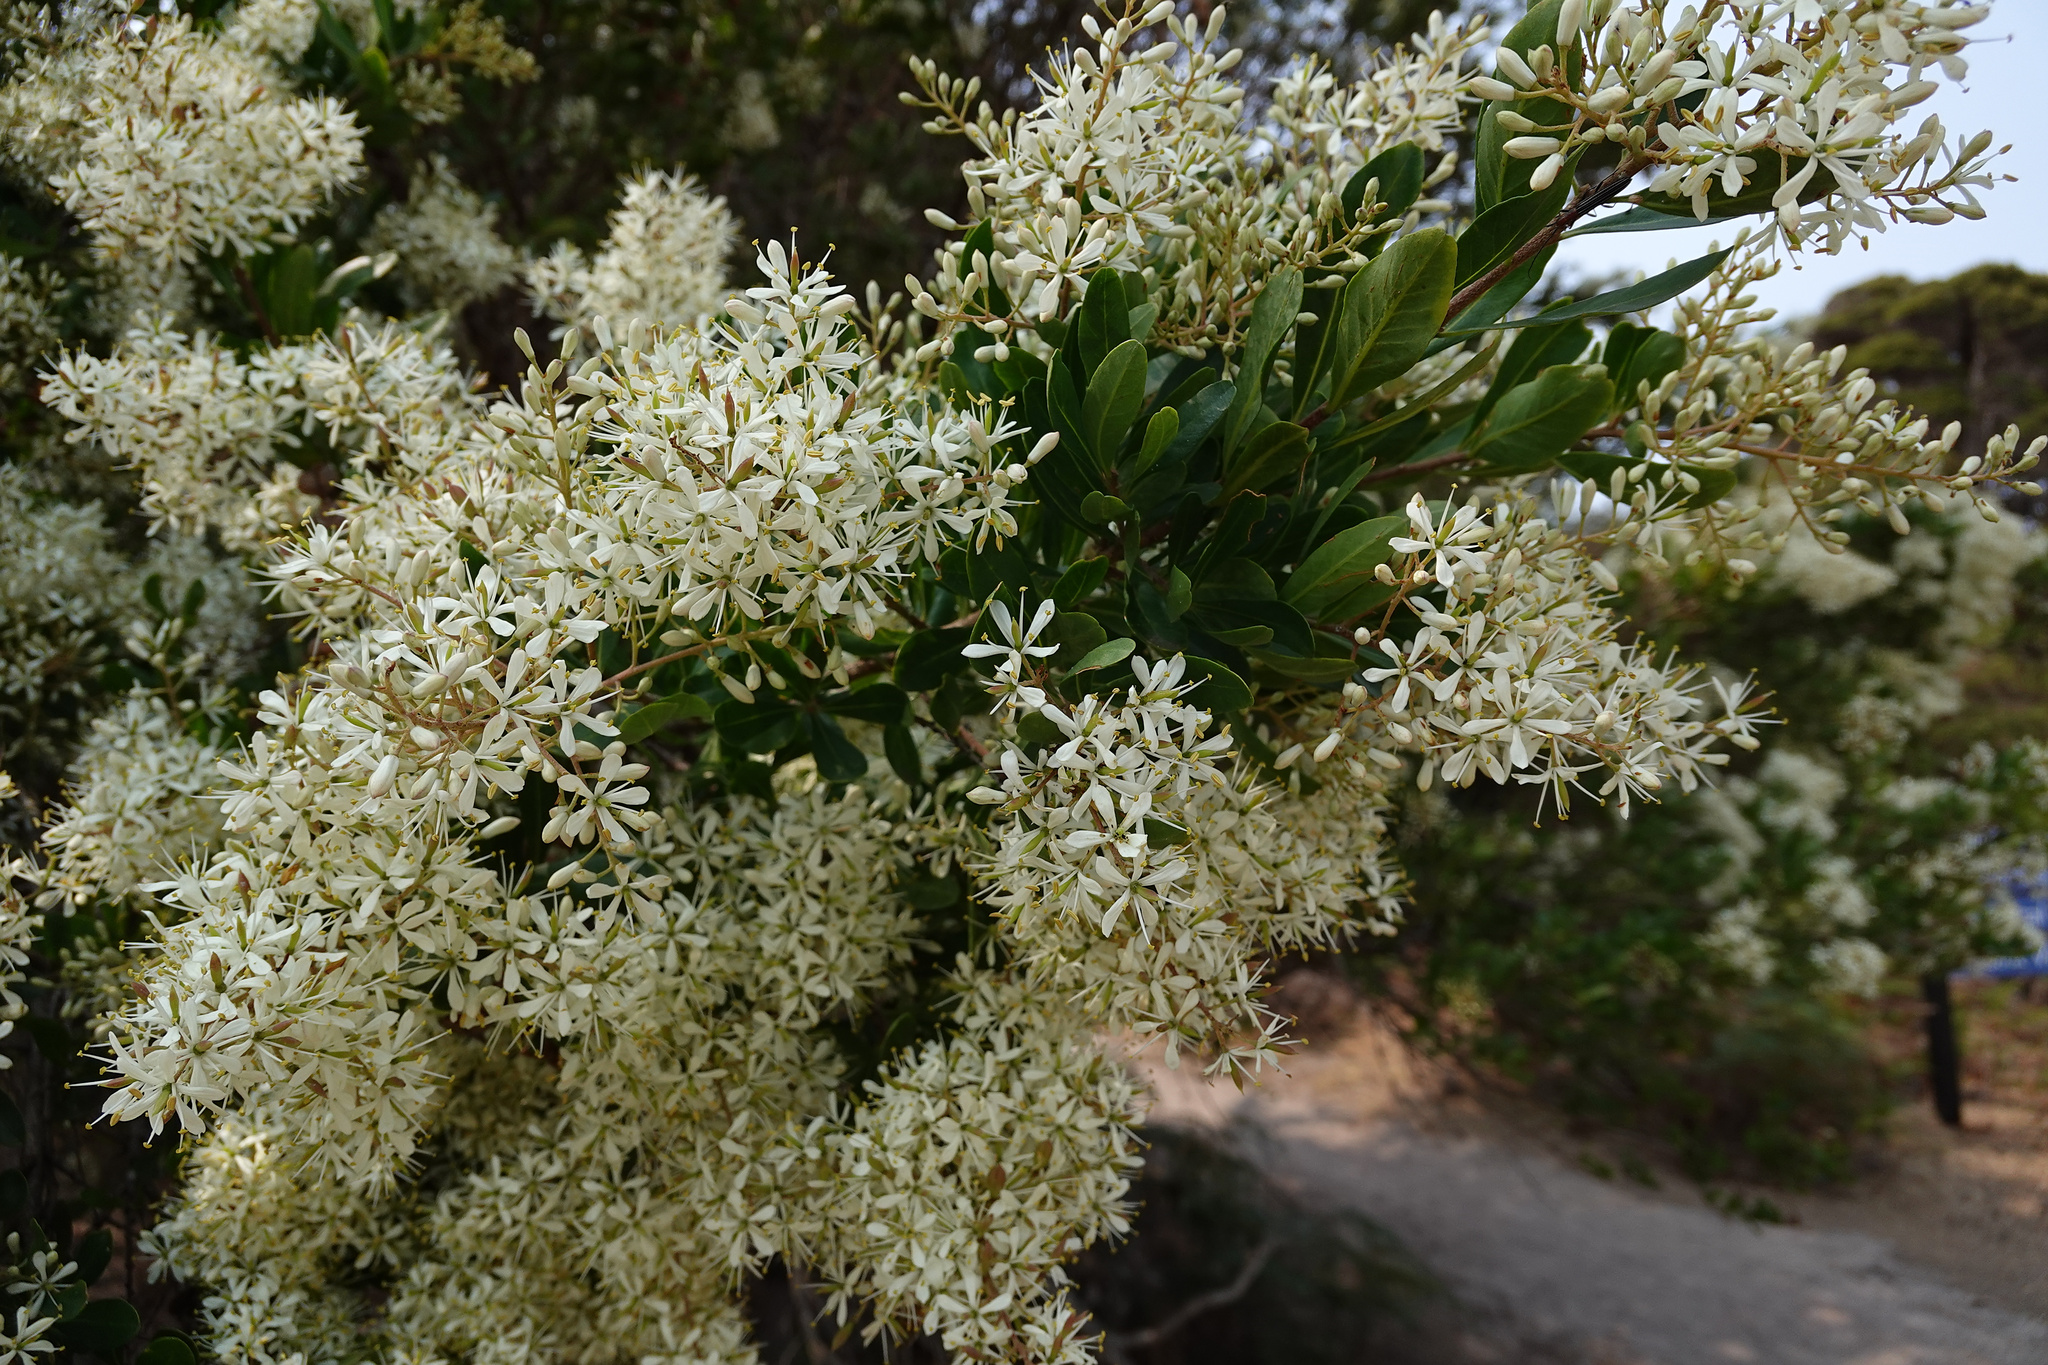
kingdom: Plantae
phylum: Tracheophyta
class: Magnoliopsida
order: Apiales
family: Pittosporaceae
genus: Bursaria
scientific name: Bursaria spinosa
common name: Australian blackthorn
